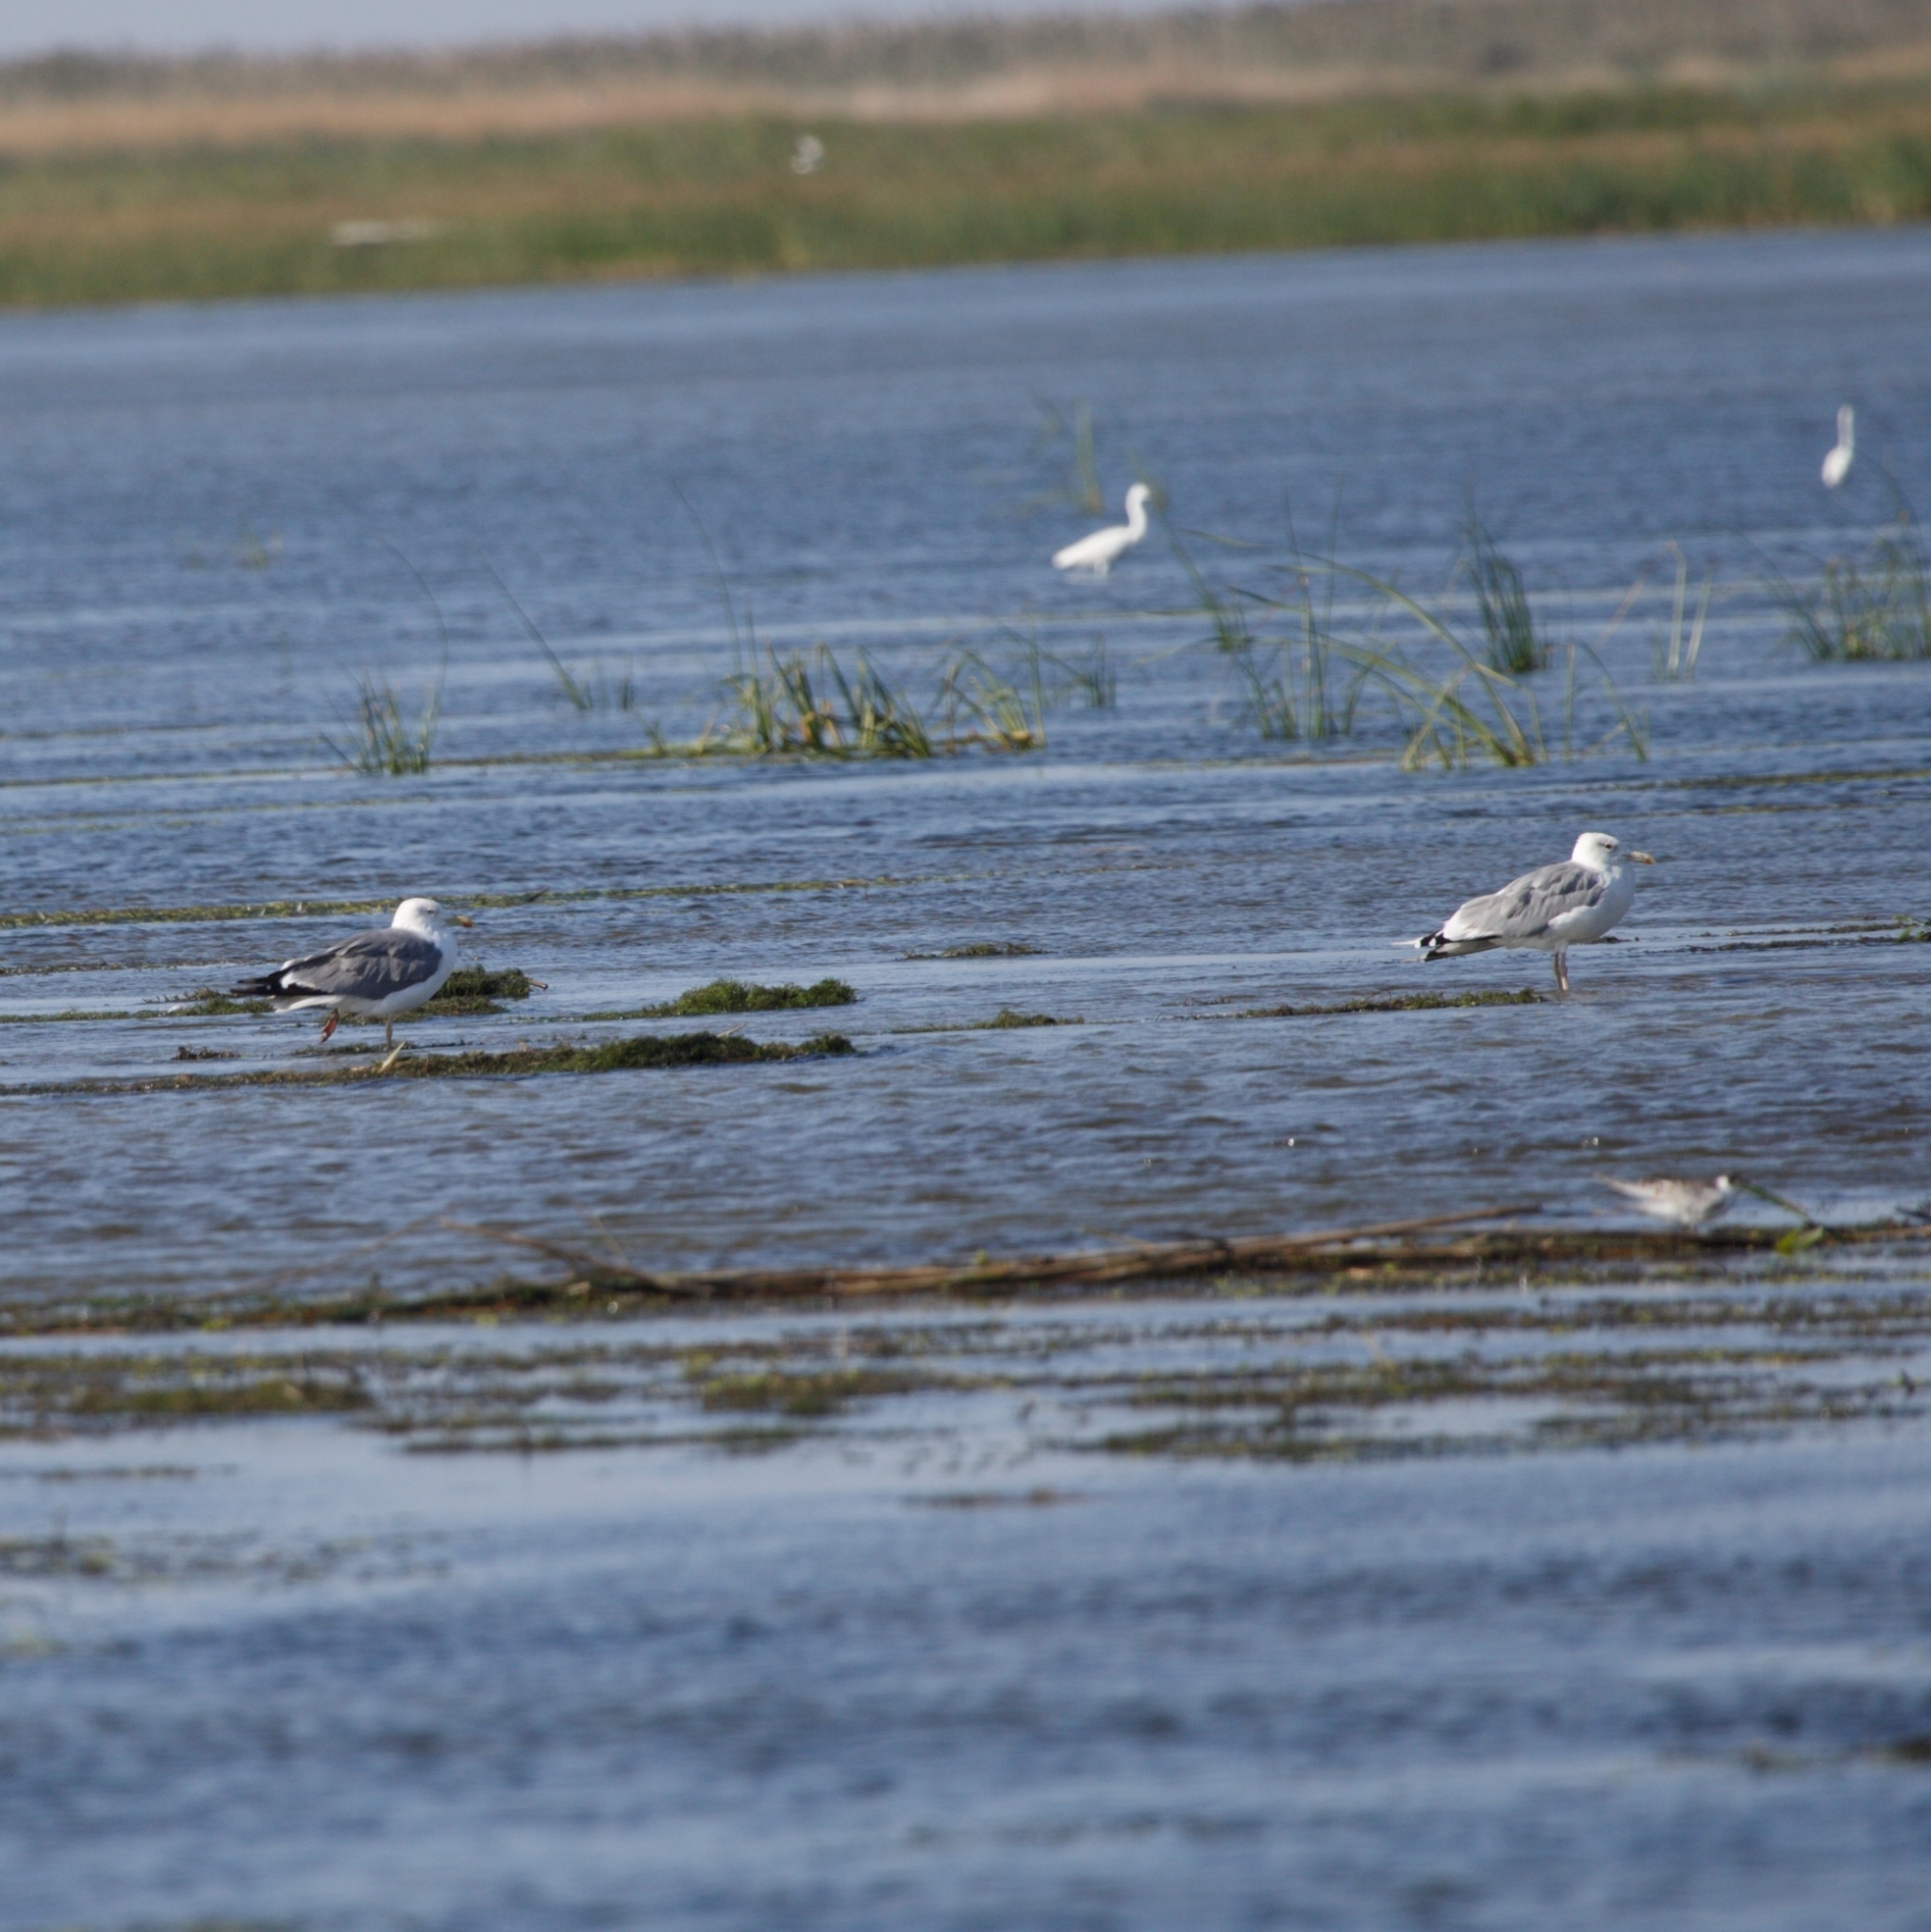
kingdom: Animalia
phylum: Chordata
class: Aves
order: Charadriiformes
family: Laridae
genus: Larus
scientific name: Larus cachinnans
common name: Caspian gull
